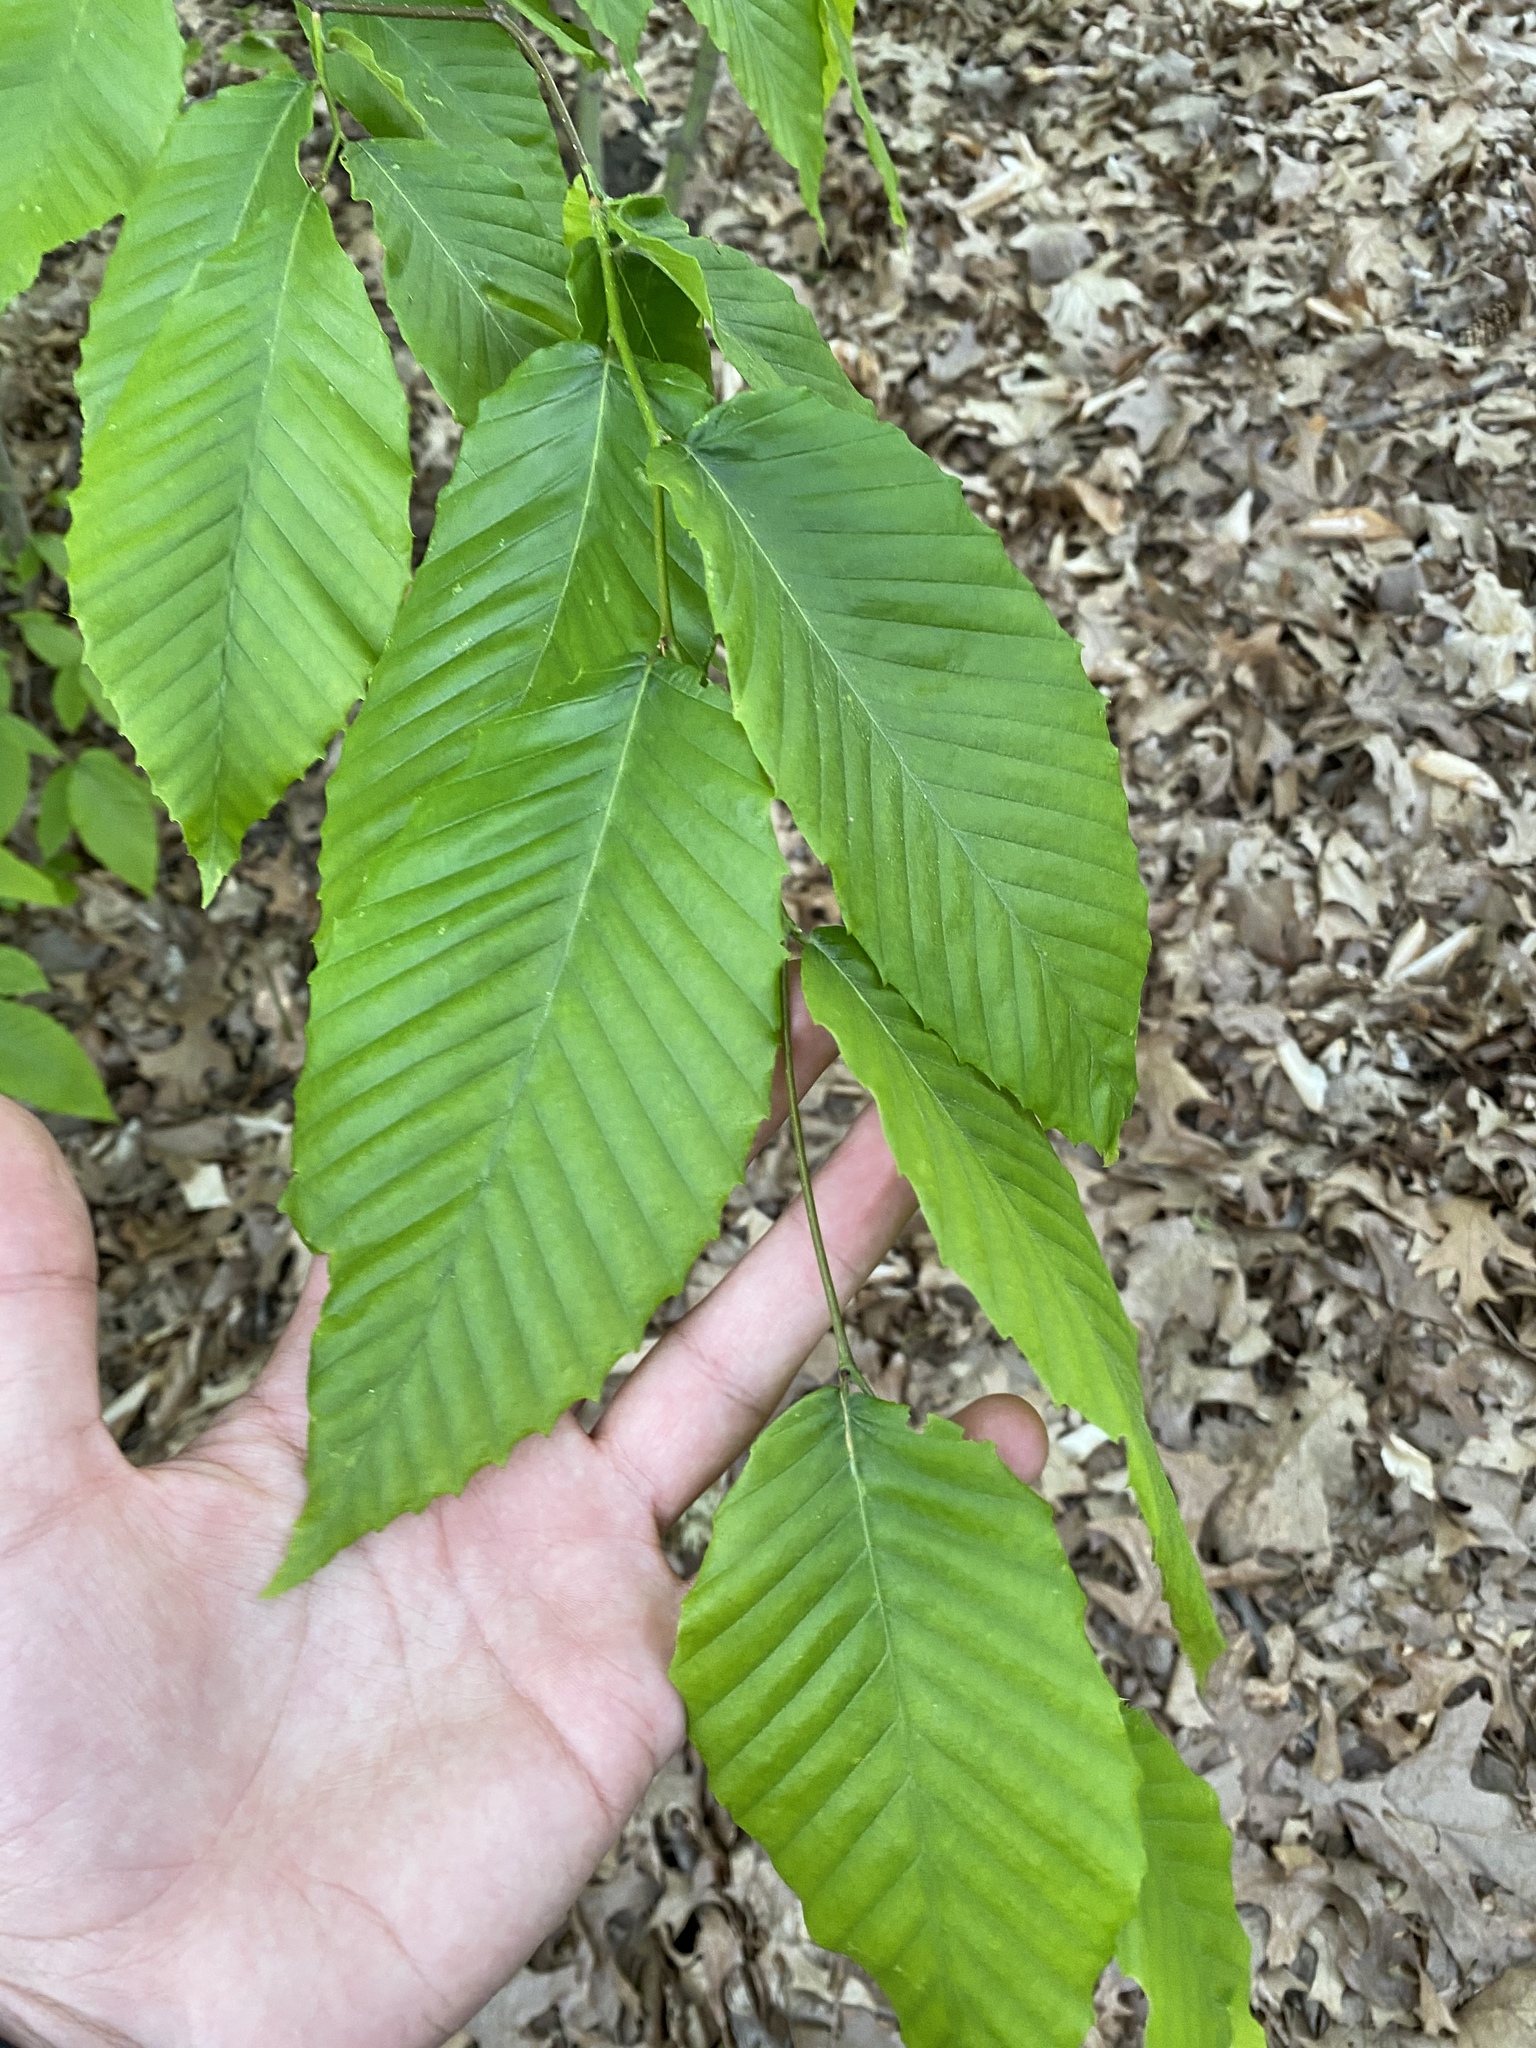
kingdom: Plantae
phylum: Tracheophyta
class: Magnoliopsida
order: Fagales
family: Fagaceae
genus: Fagus
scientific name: Fagus grandifolia
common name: American beech
